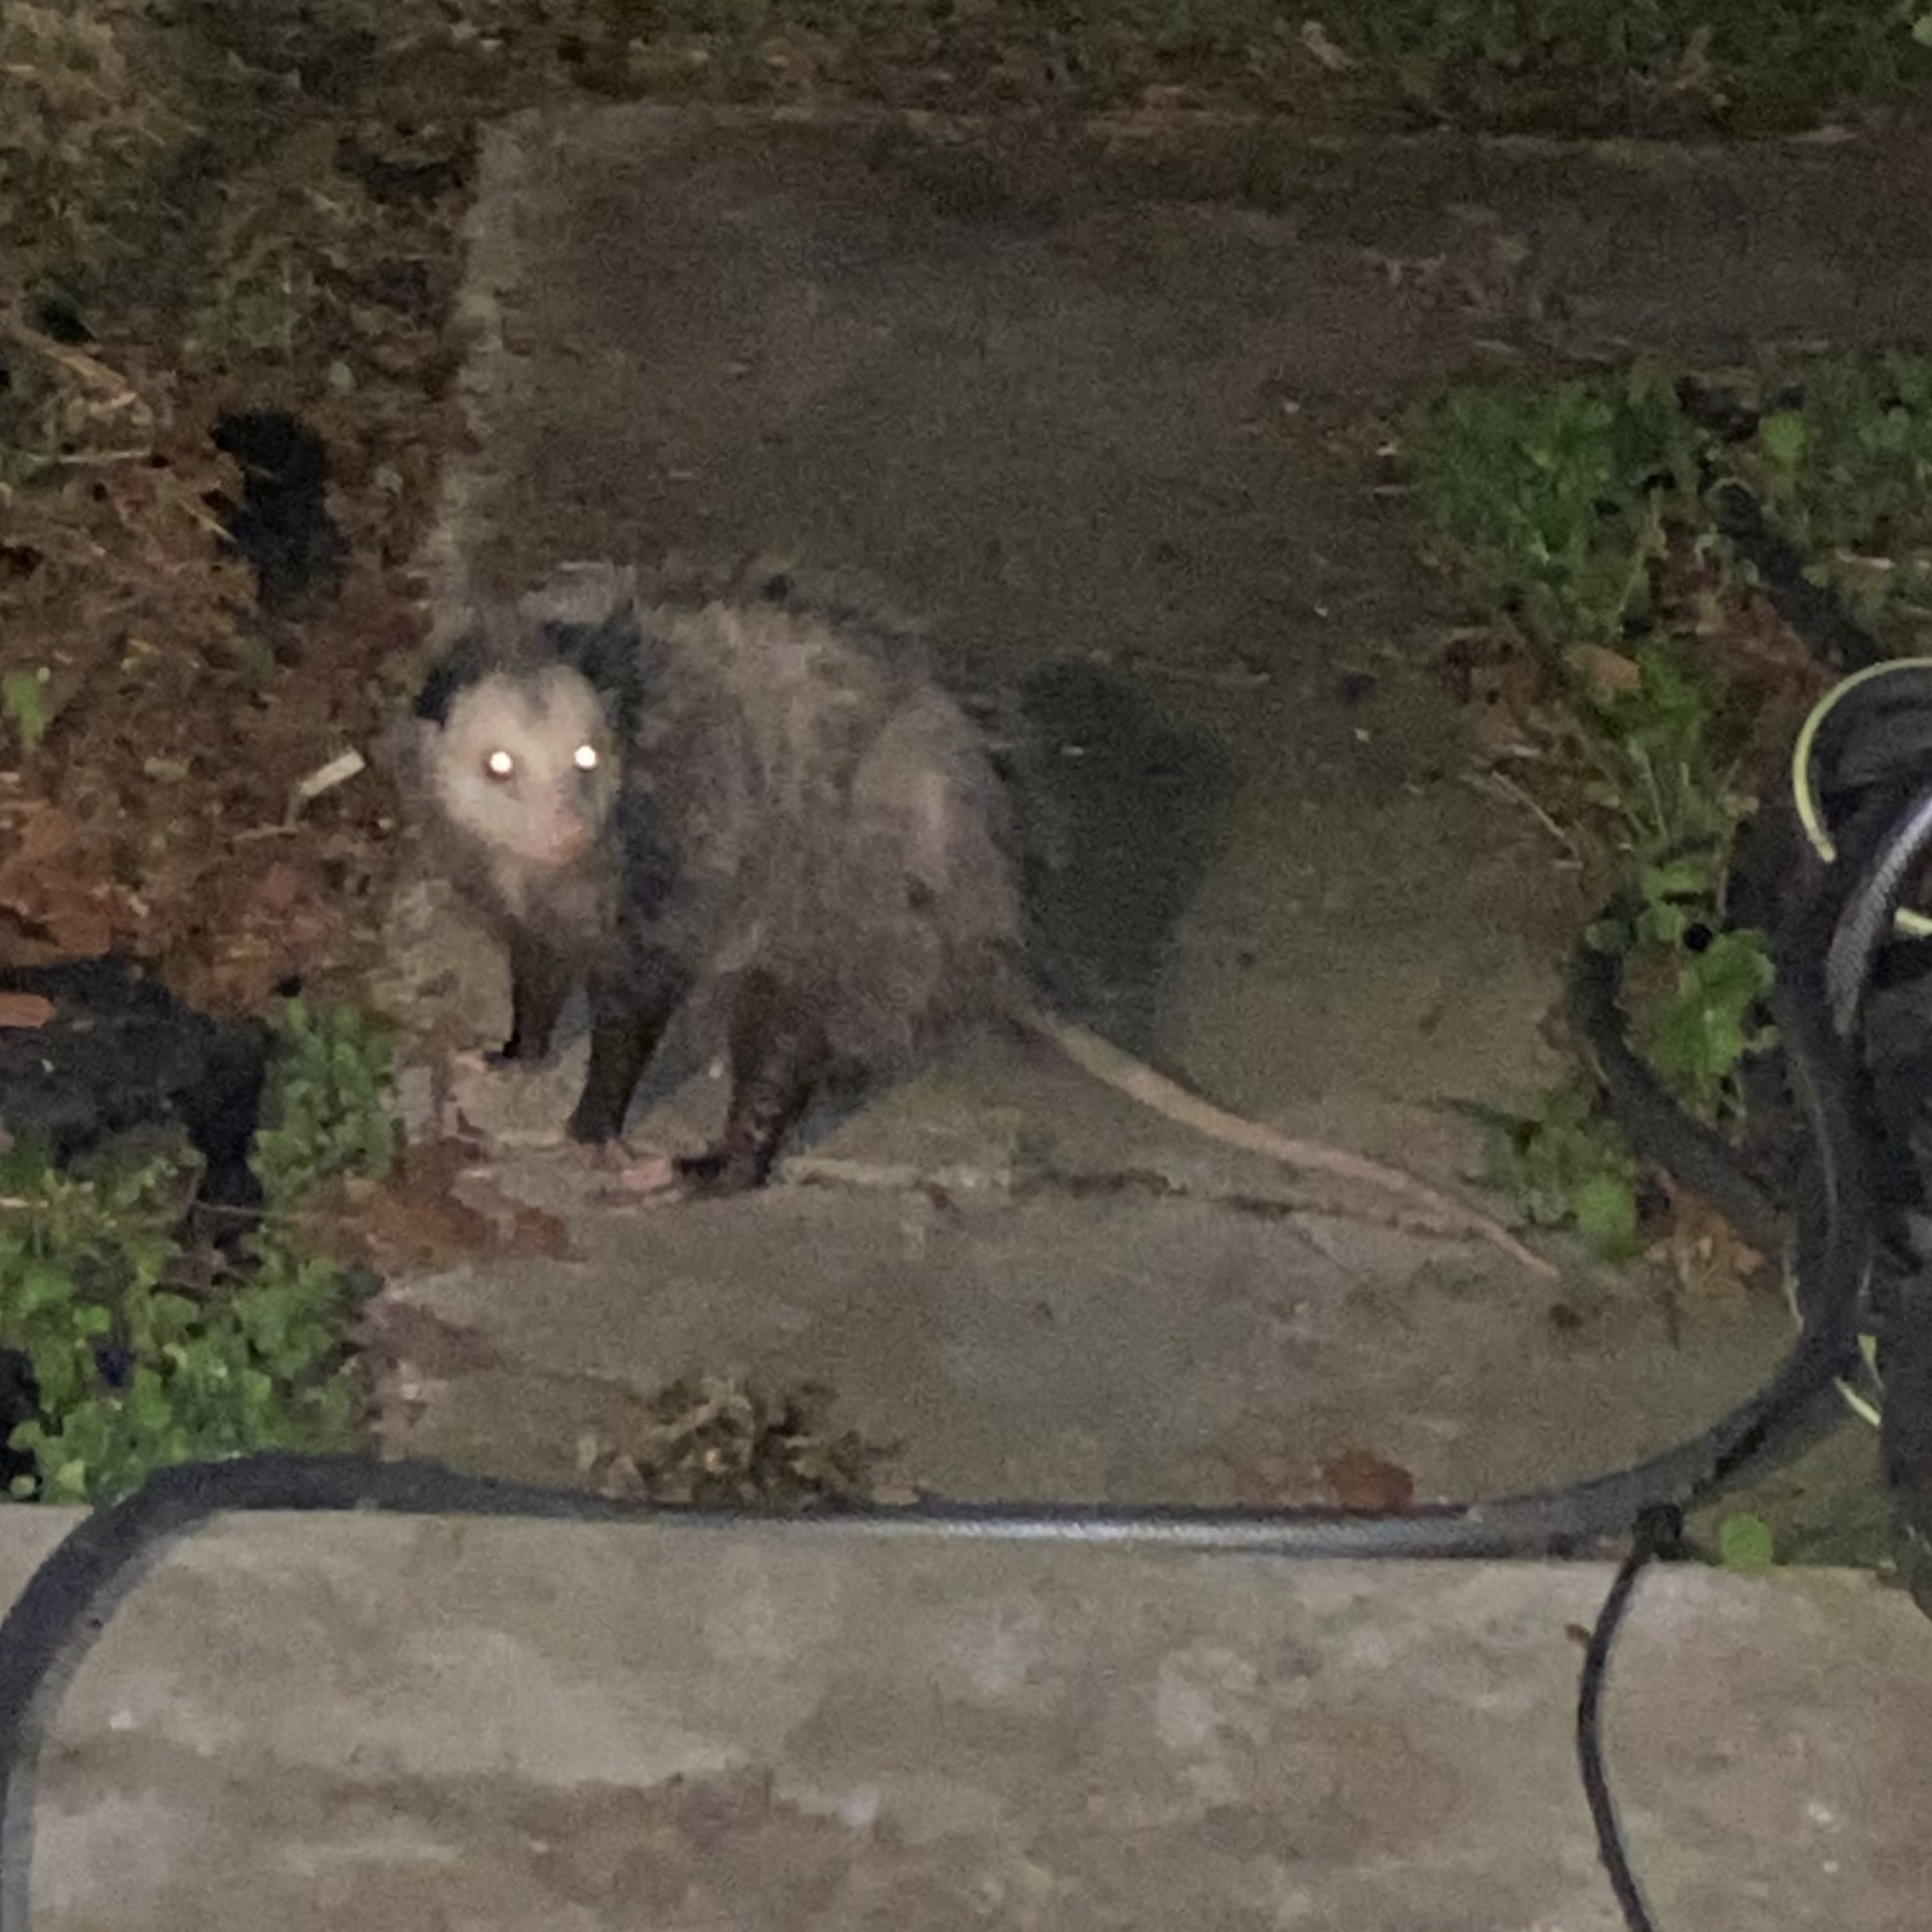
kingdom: Animalia
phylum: Chordata
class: Mammalia
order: Didelphimorphia
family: Didelphidae
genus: Didelphis
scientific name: Didelphis virginiana
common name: Virginia opossum
